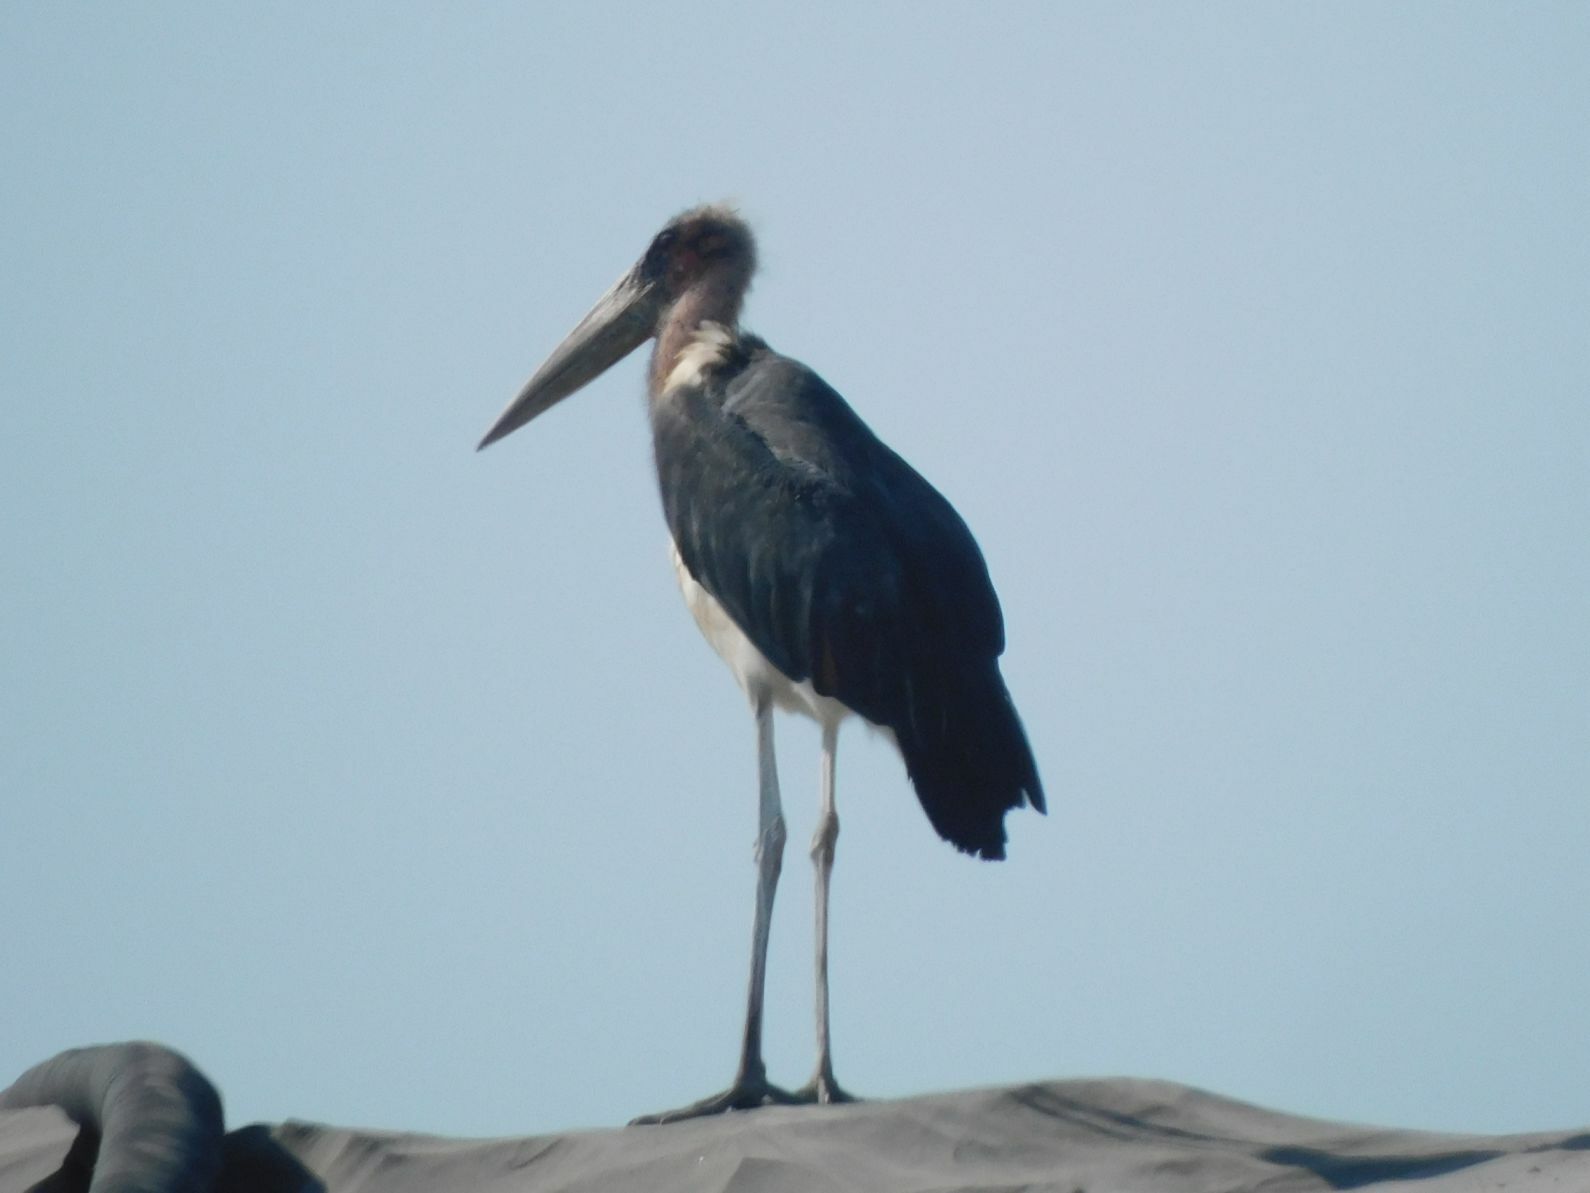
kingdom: Animalia
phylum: Chordata
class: Aves
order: Ciconiiformes
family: Ciconiidae
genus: Leptoptilos
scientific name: Leptoptilos crumenifer
